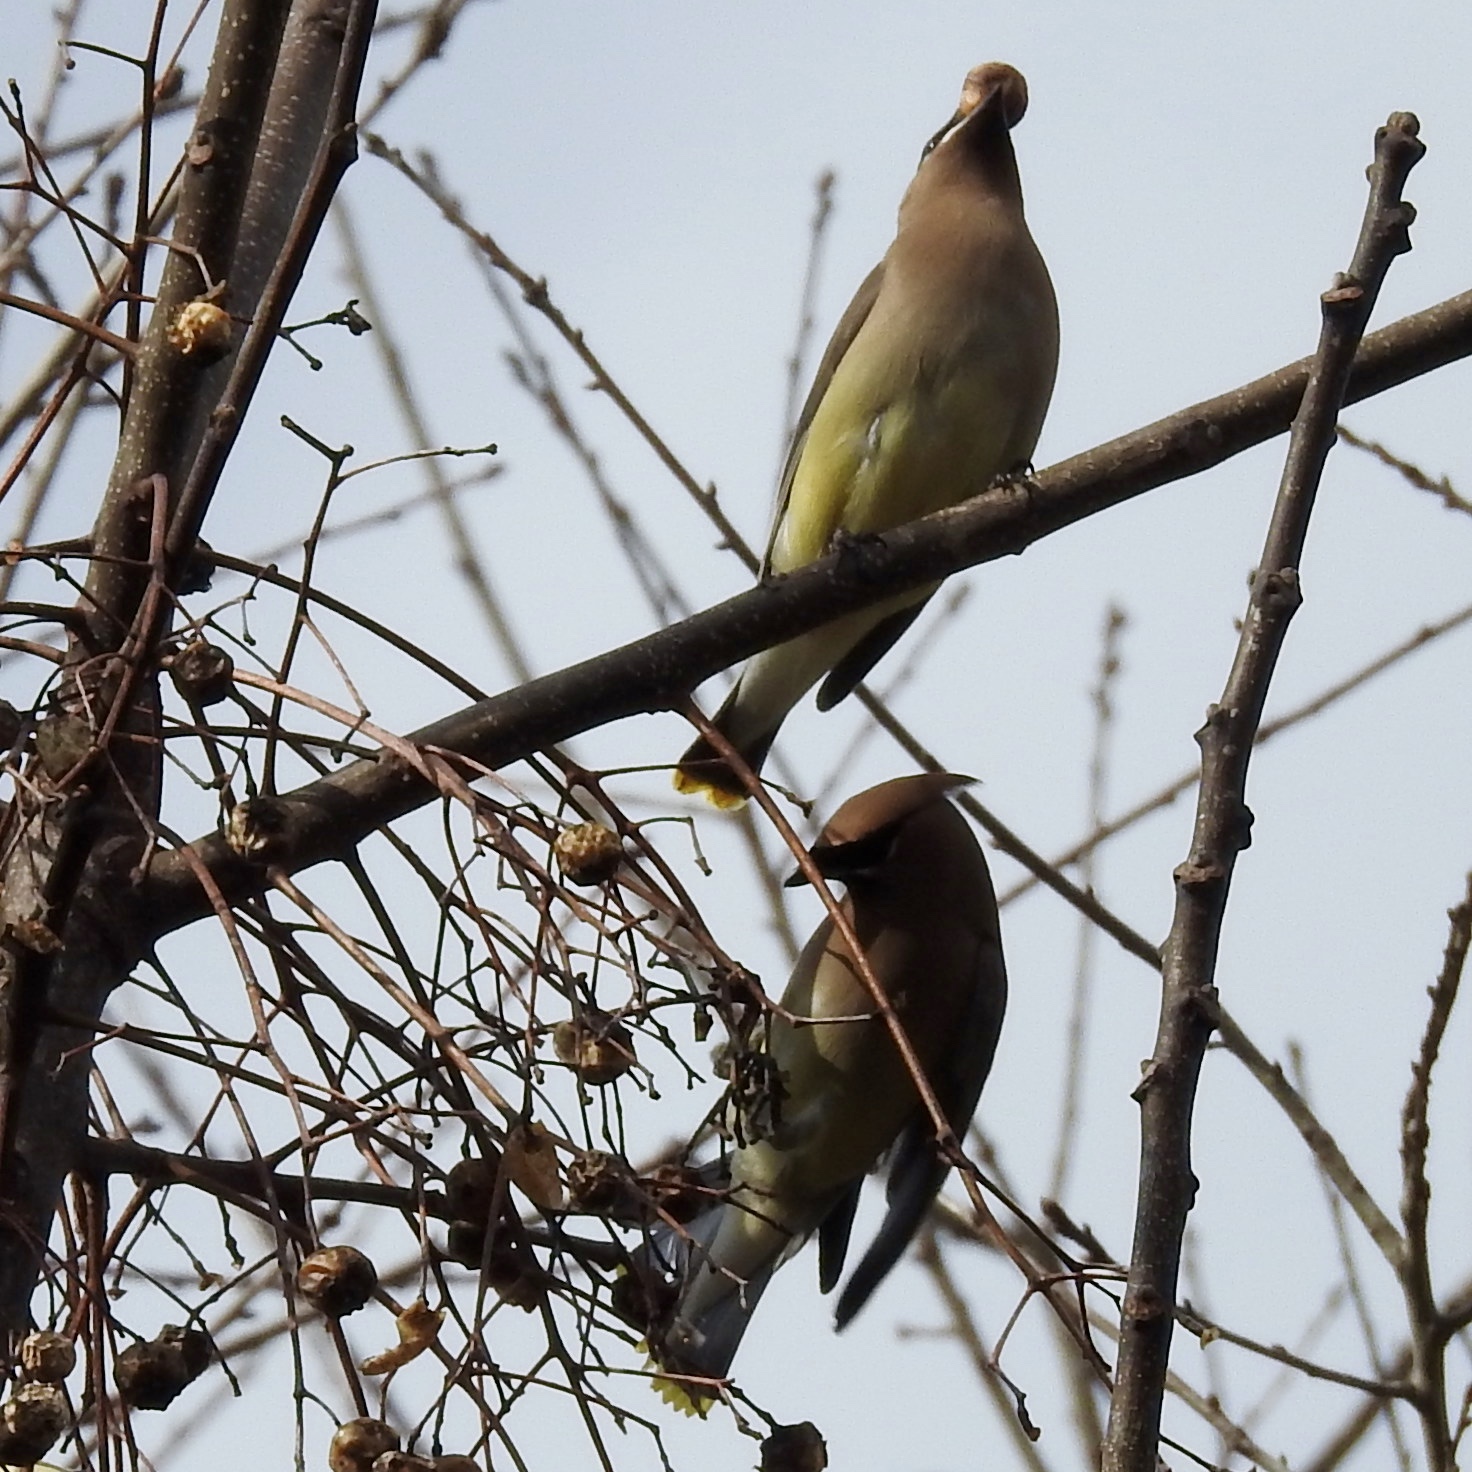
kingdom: Animalia
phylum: Chordata
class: Aves
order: Passeriformes
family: Bombycillidae
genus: Bombycilla
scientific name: Bombycilla cedrorum
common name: Cedar waxwing
